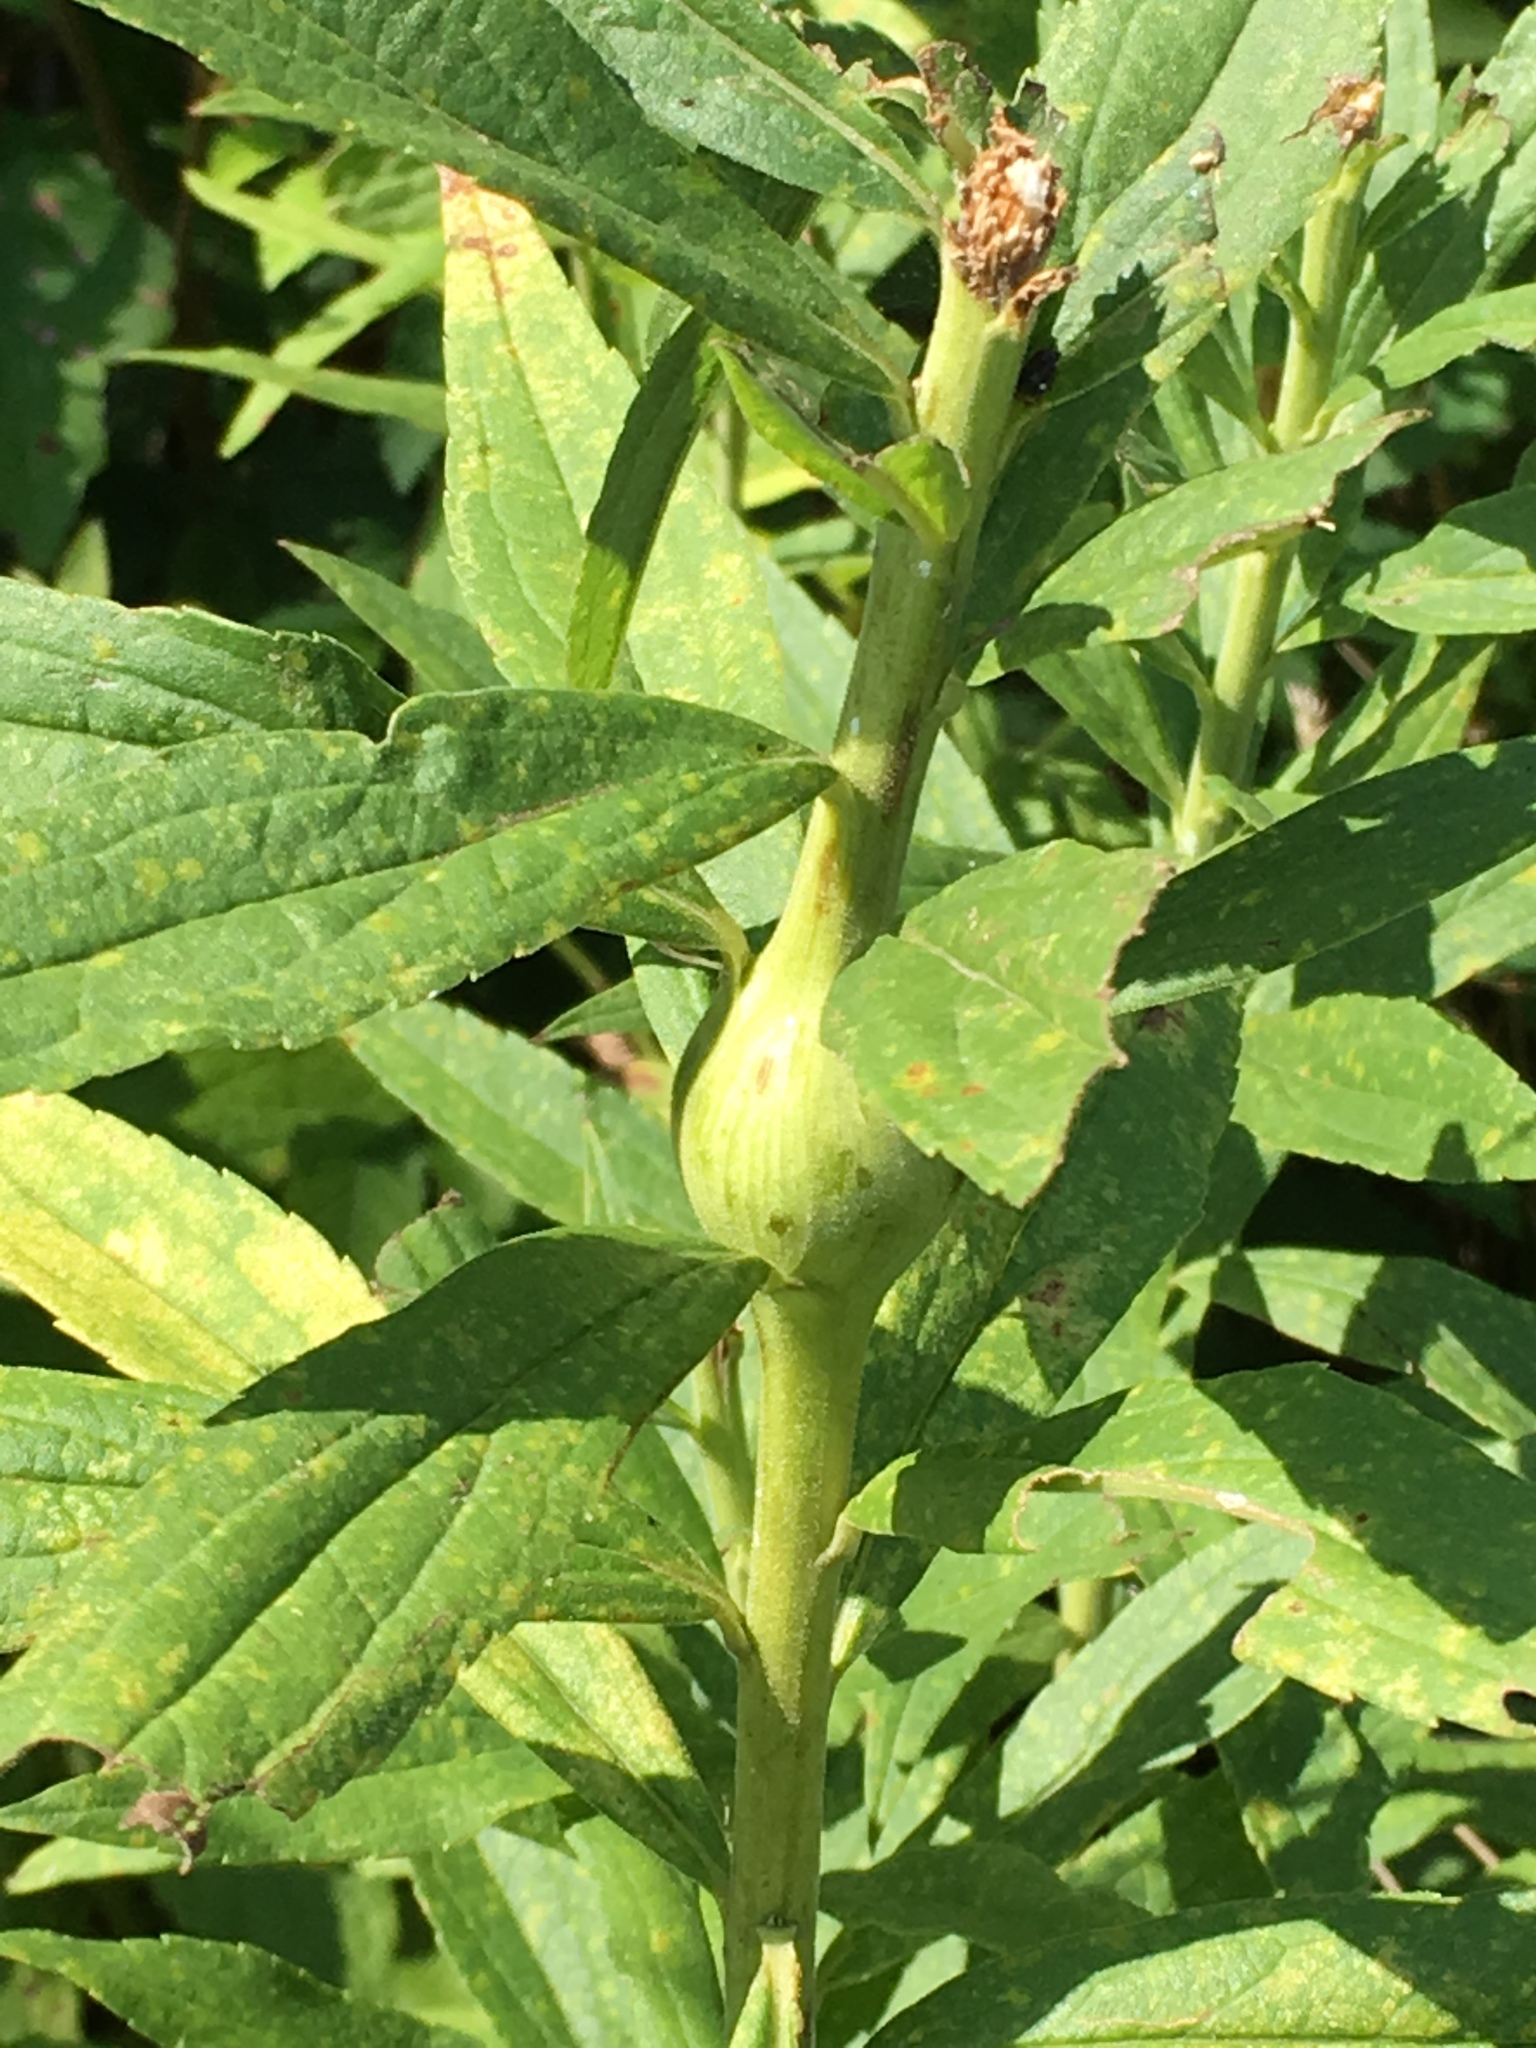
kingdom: Animalia
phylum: Arthropoda
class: Insecta
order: Diptera
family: Tephritidae
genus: Eurosta
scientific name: Eurosta solidaginis
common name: Goldenrod gall fly
